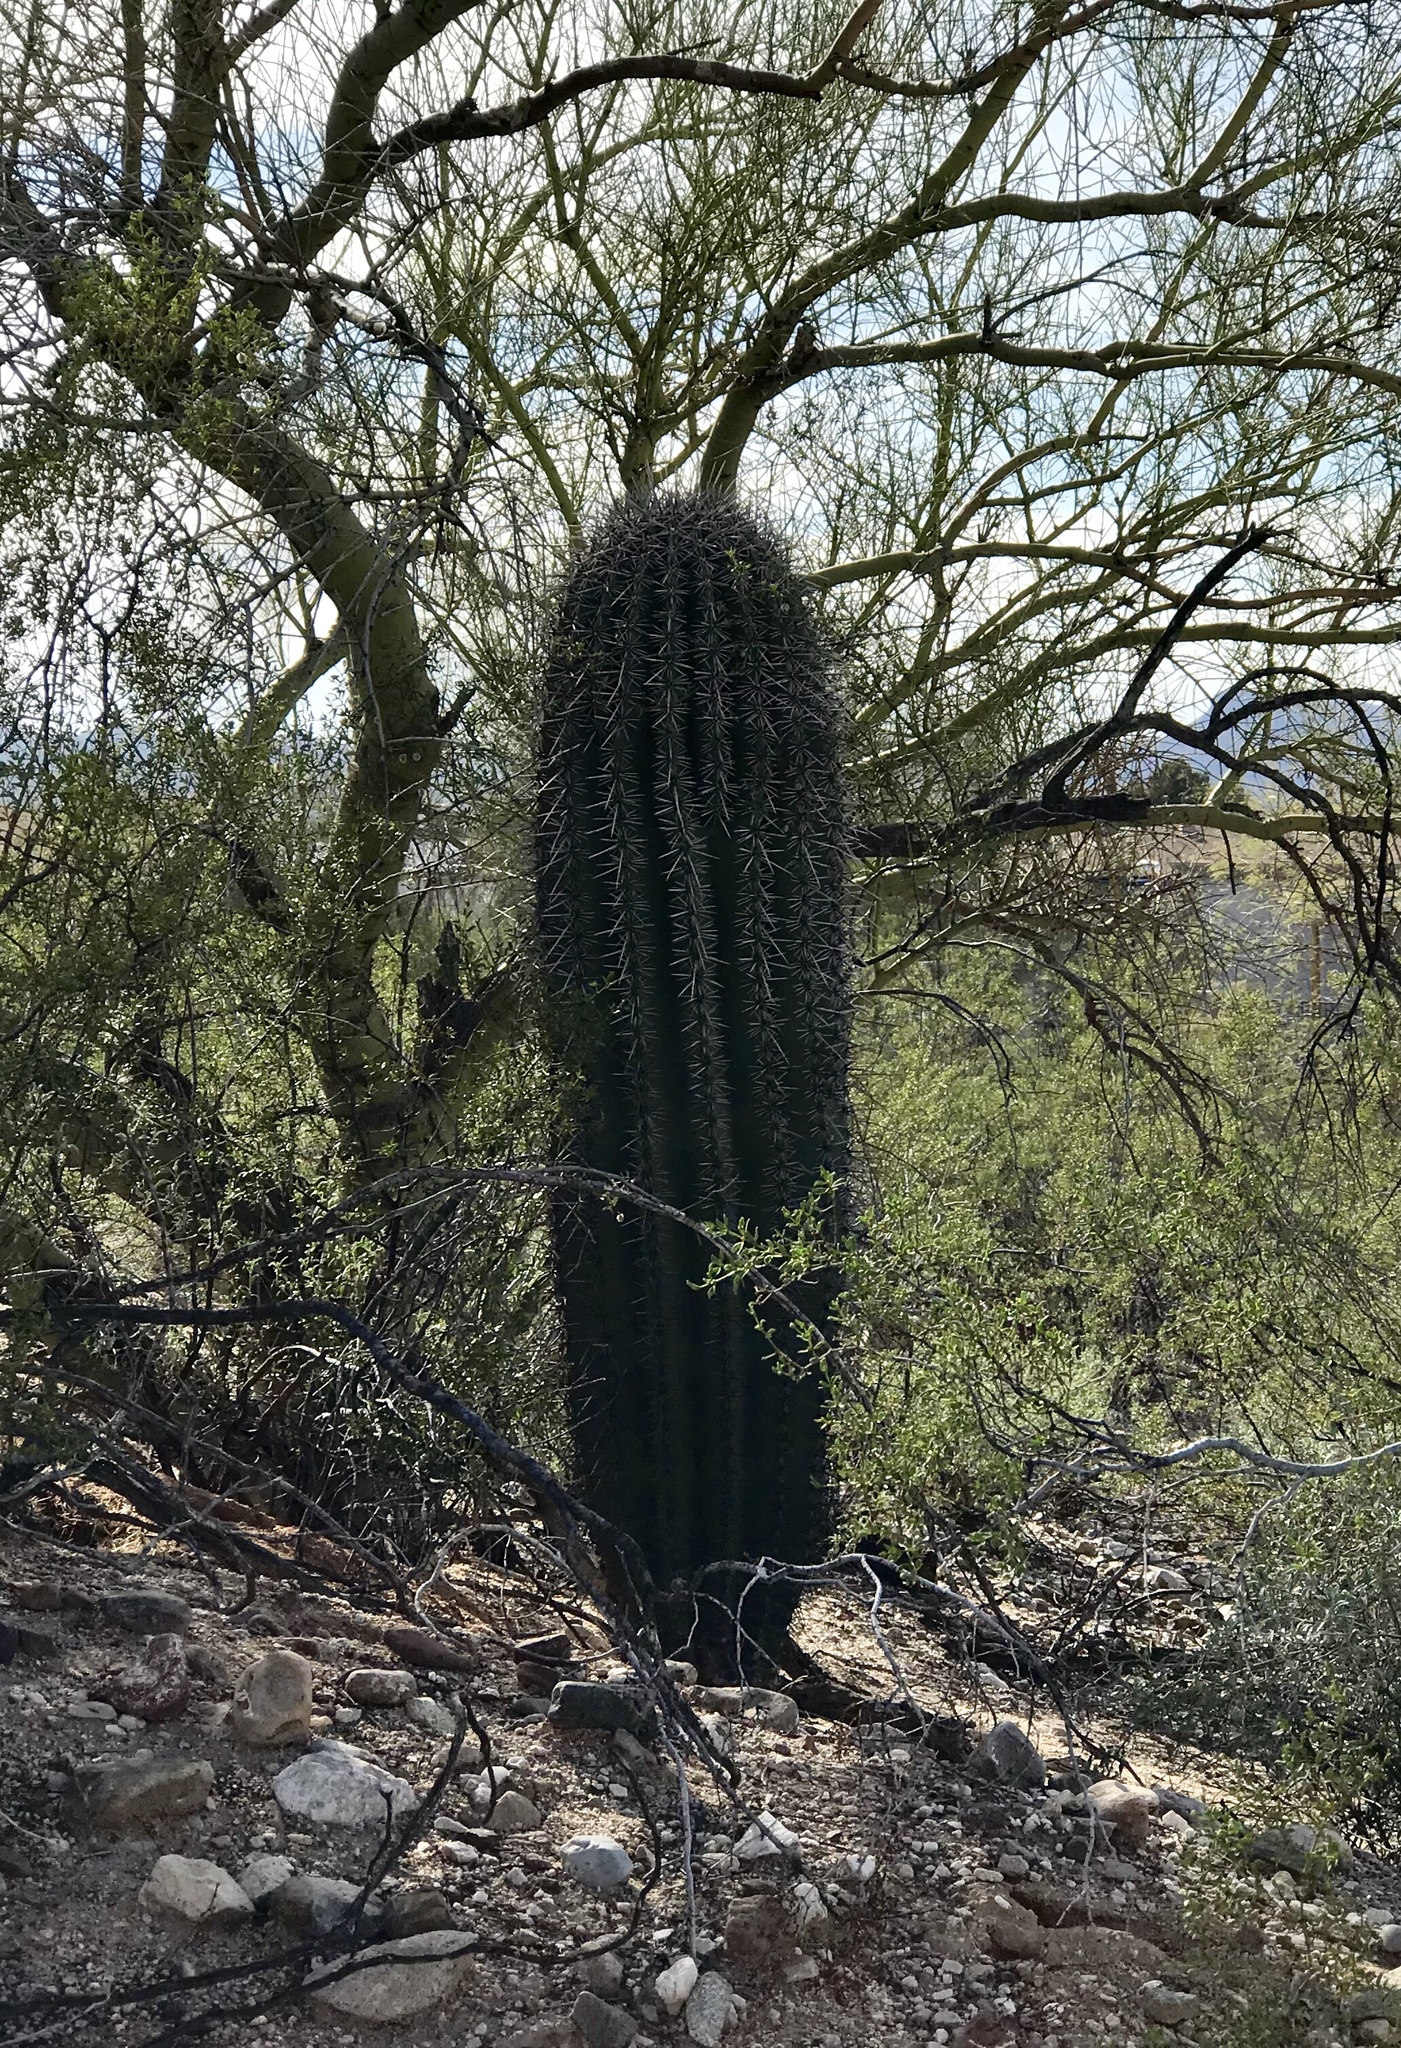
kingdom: Plantae
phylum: Tracheophyta
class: Magnoliopsida
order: Caryophyllales
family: Cactaceae
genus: Carnegiea
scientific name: Carnegiea gigantea
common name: Saguaro
